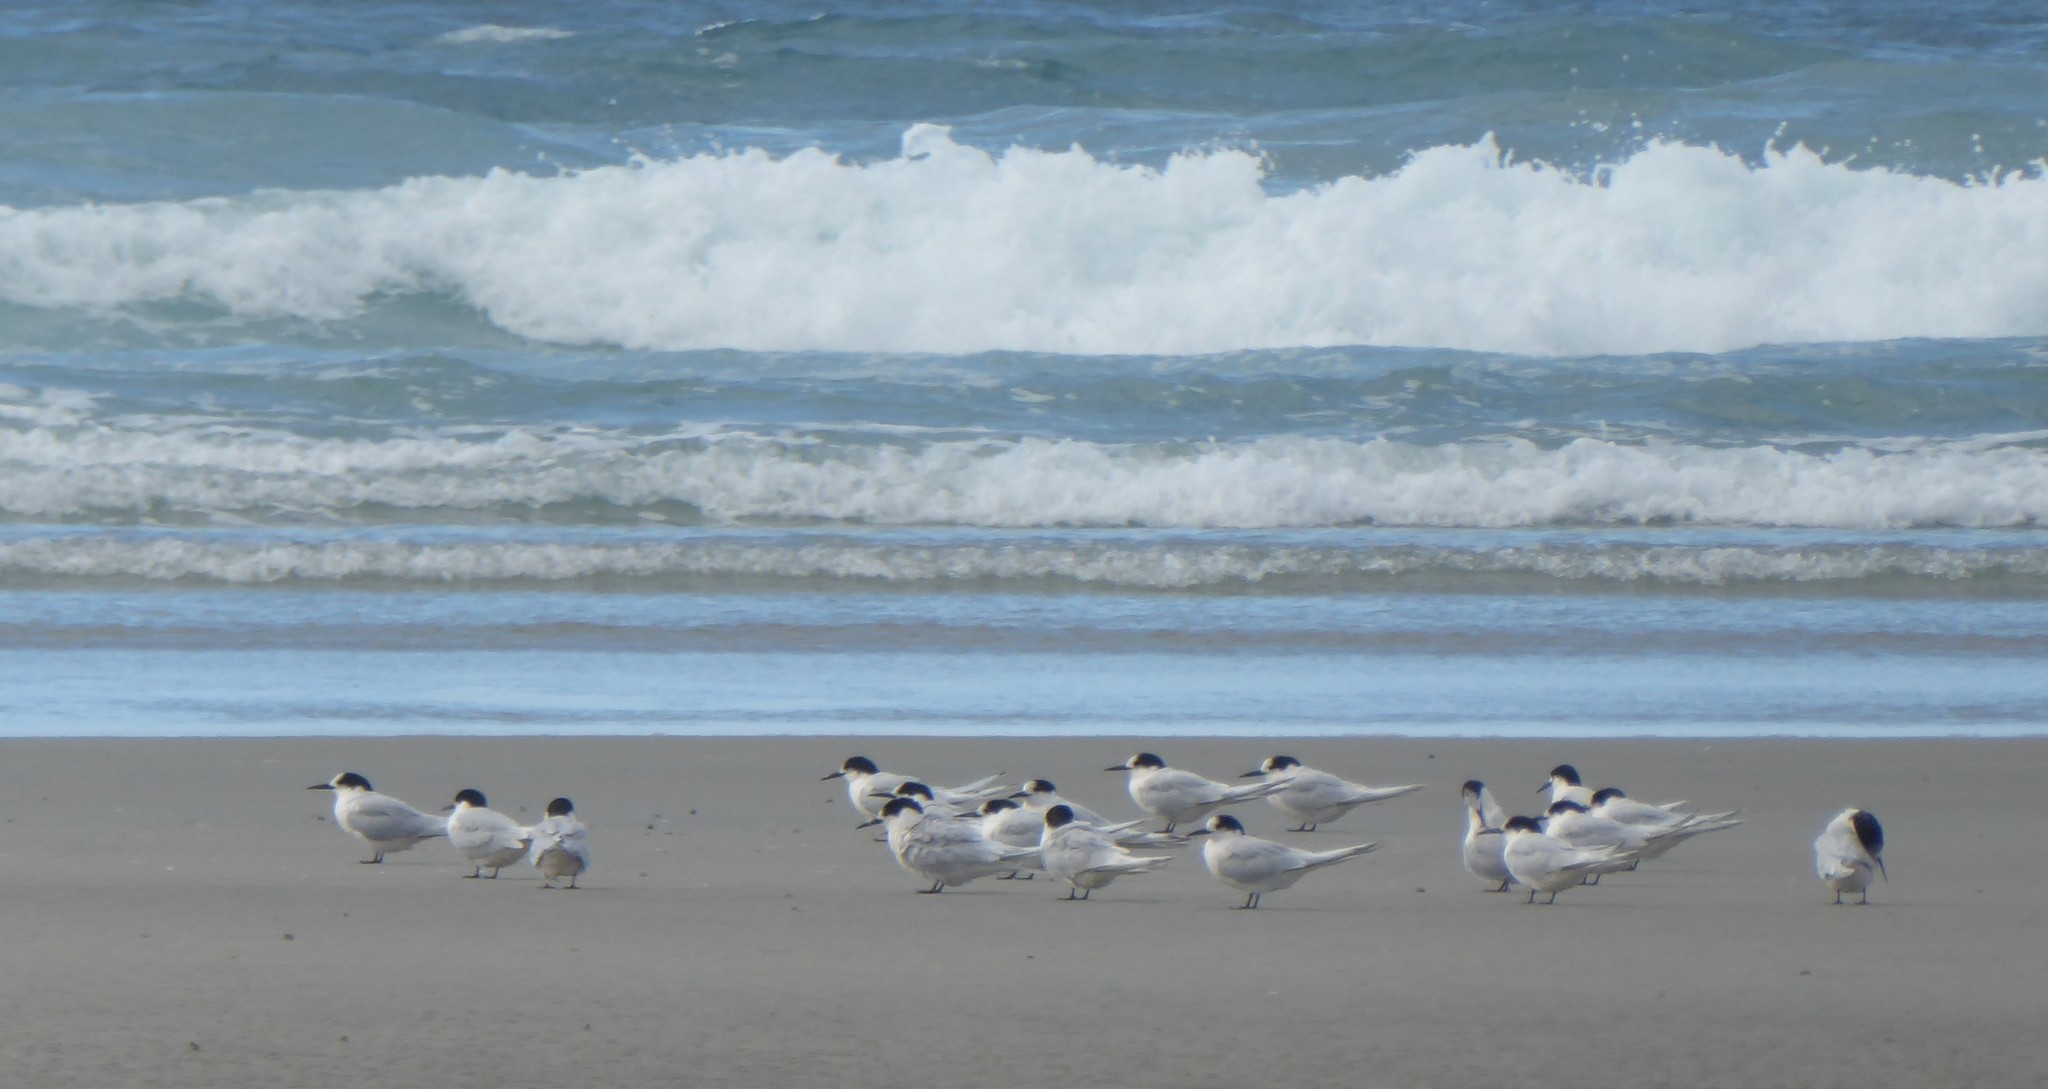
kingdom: Animalia
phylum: Chordata
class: Aves
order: Charadriiformes
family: Laridae
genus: Sterna
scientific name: Sterna striata
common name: White-fronted tern
